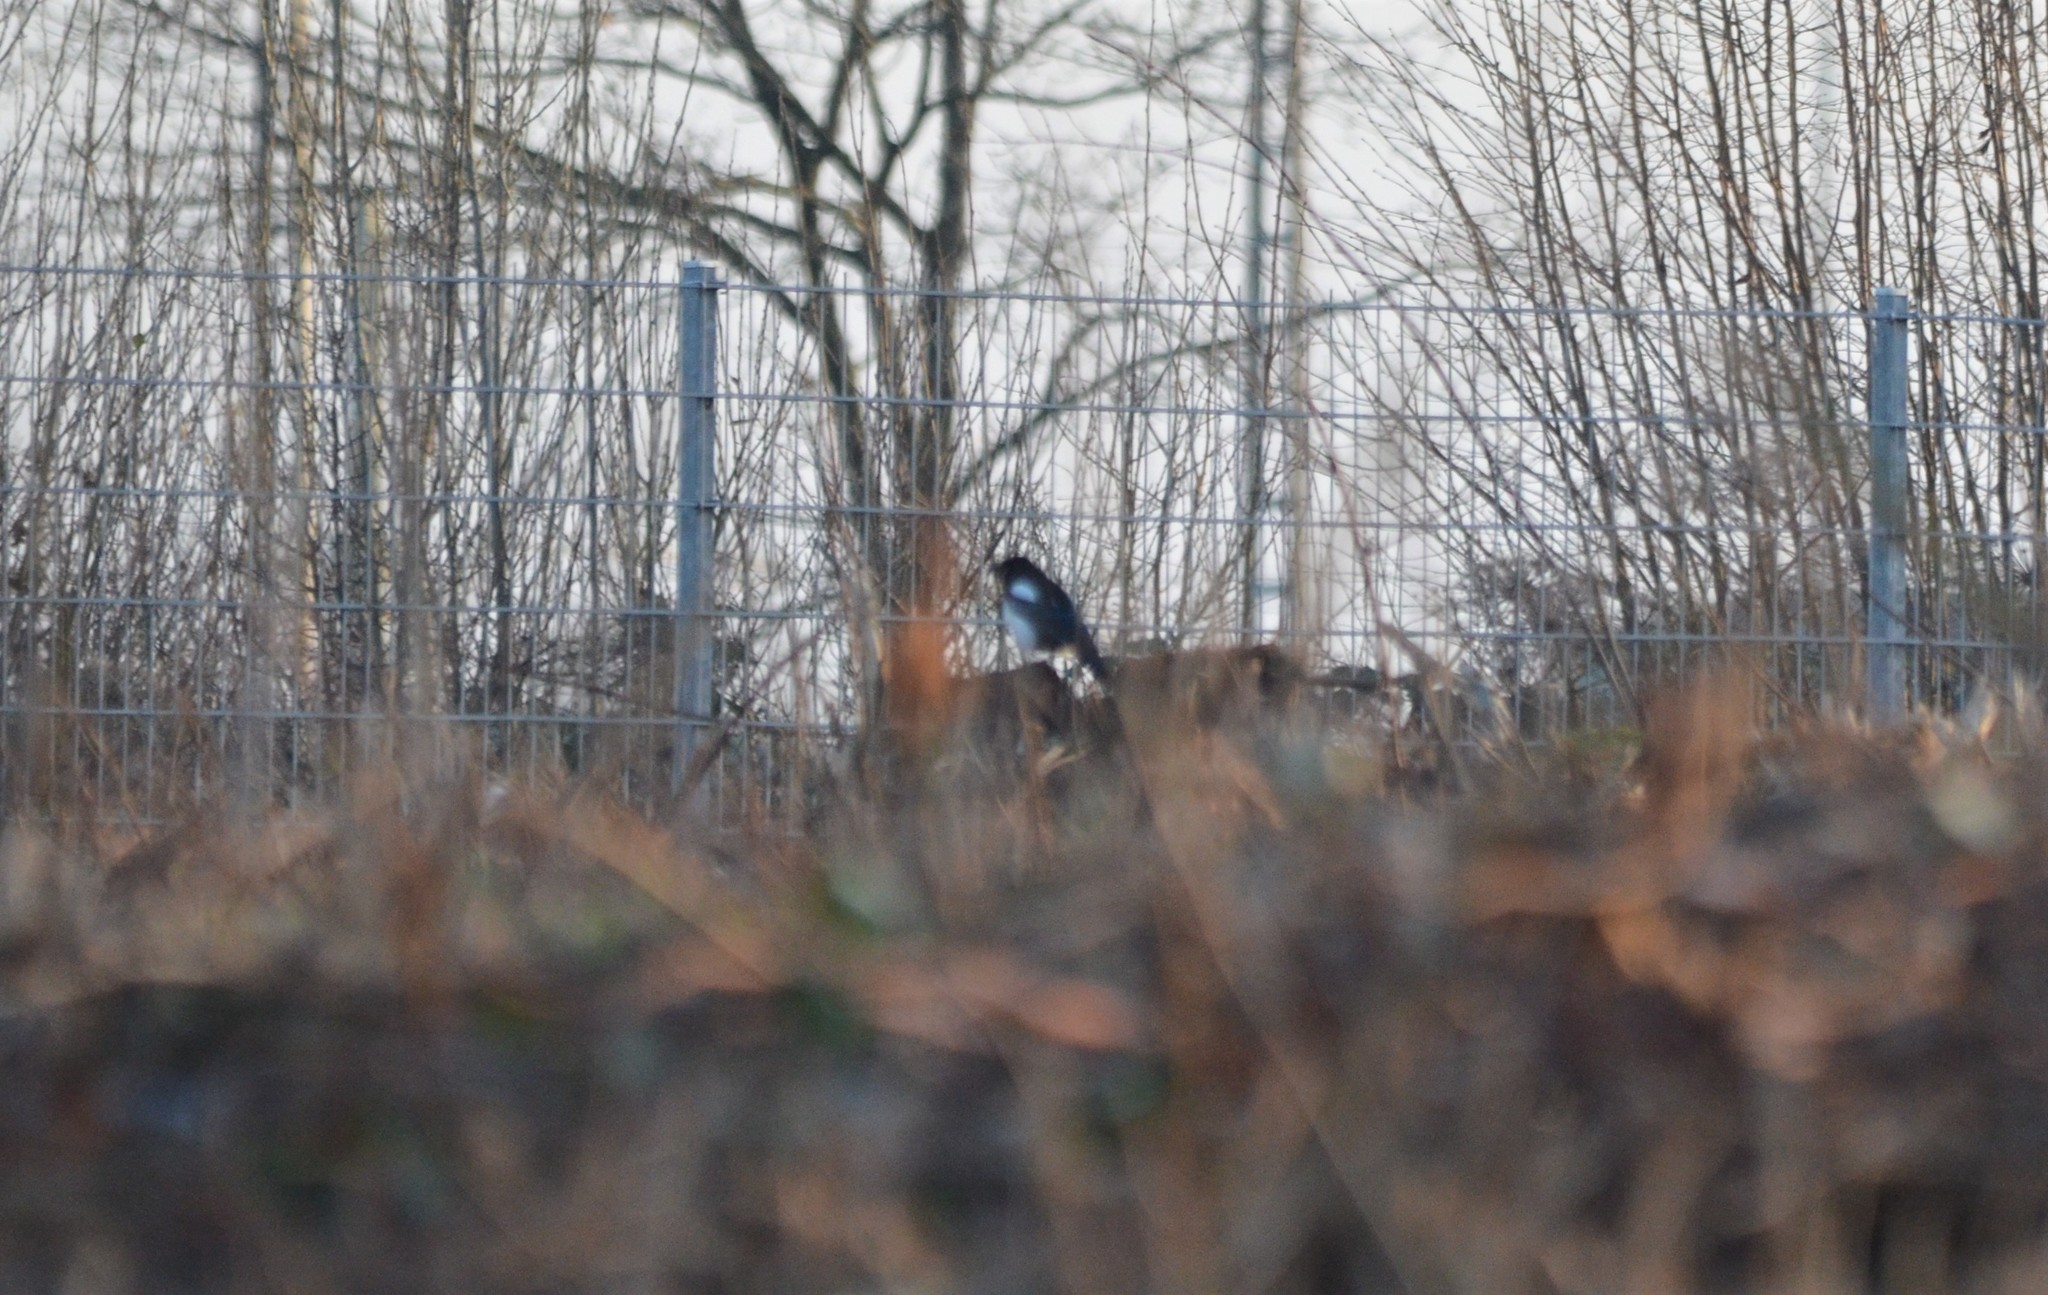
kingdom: Animalia
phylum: Chordata
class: Aves
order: Passeriformes
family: Corvidae
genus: Pica
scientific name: Pica pica
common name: Eurasian magpie
